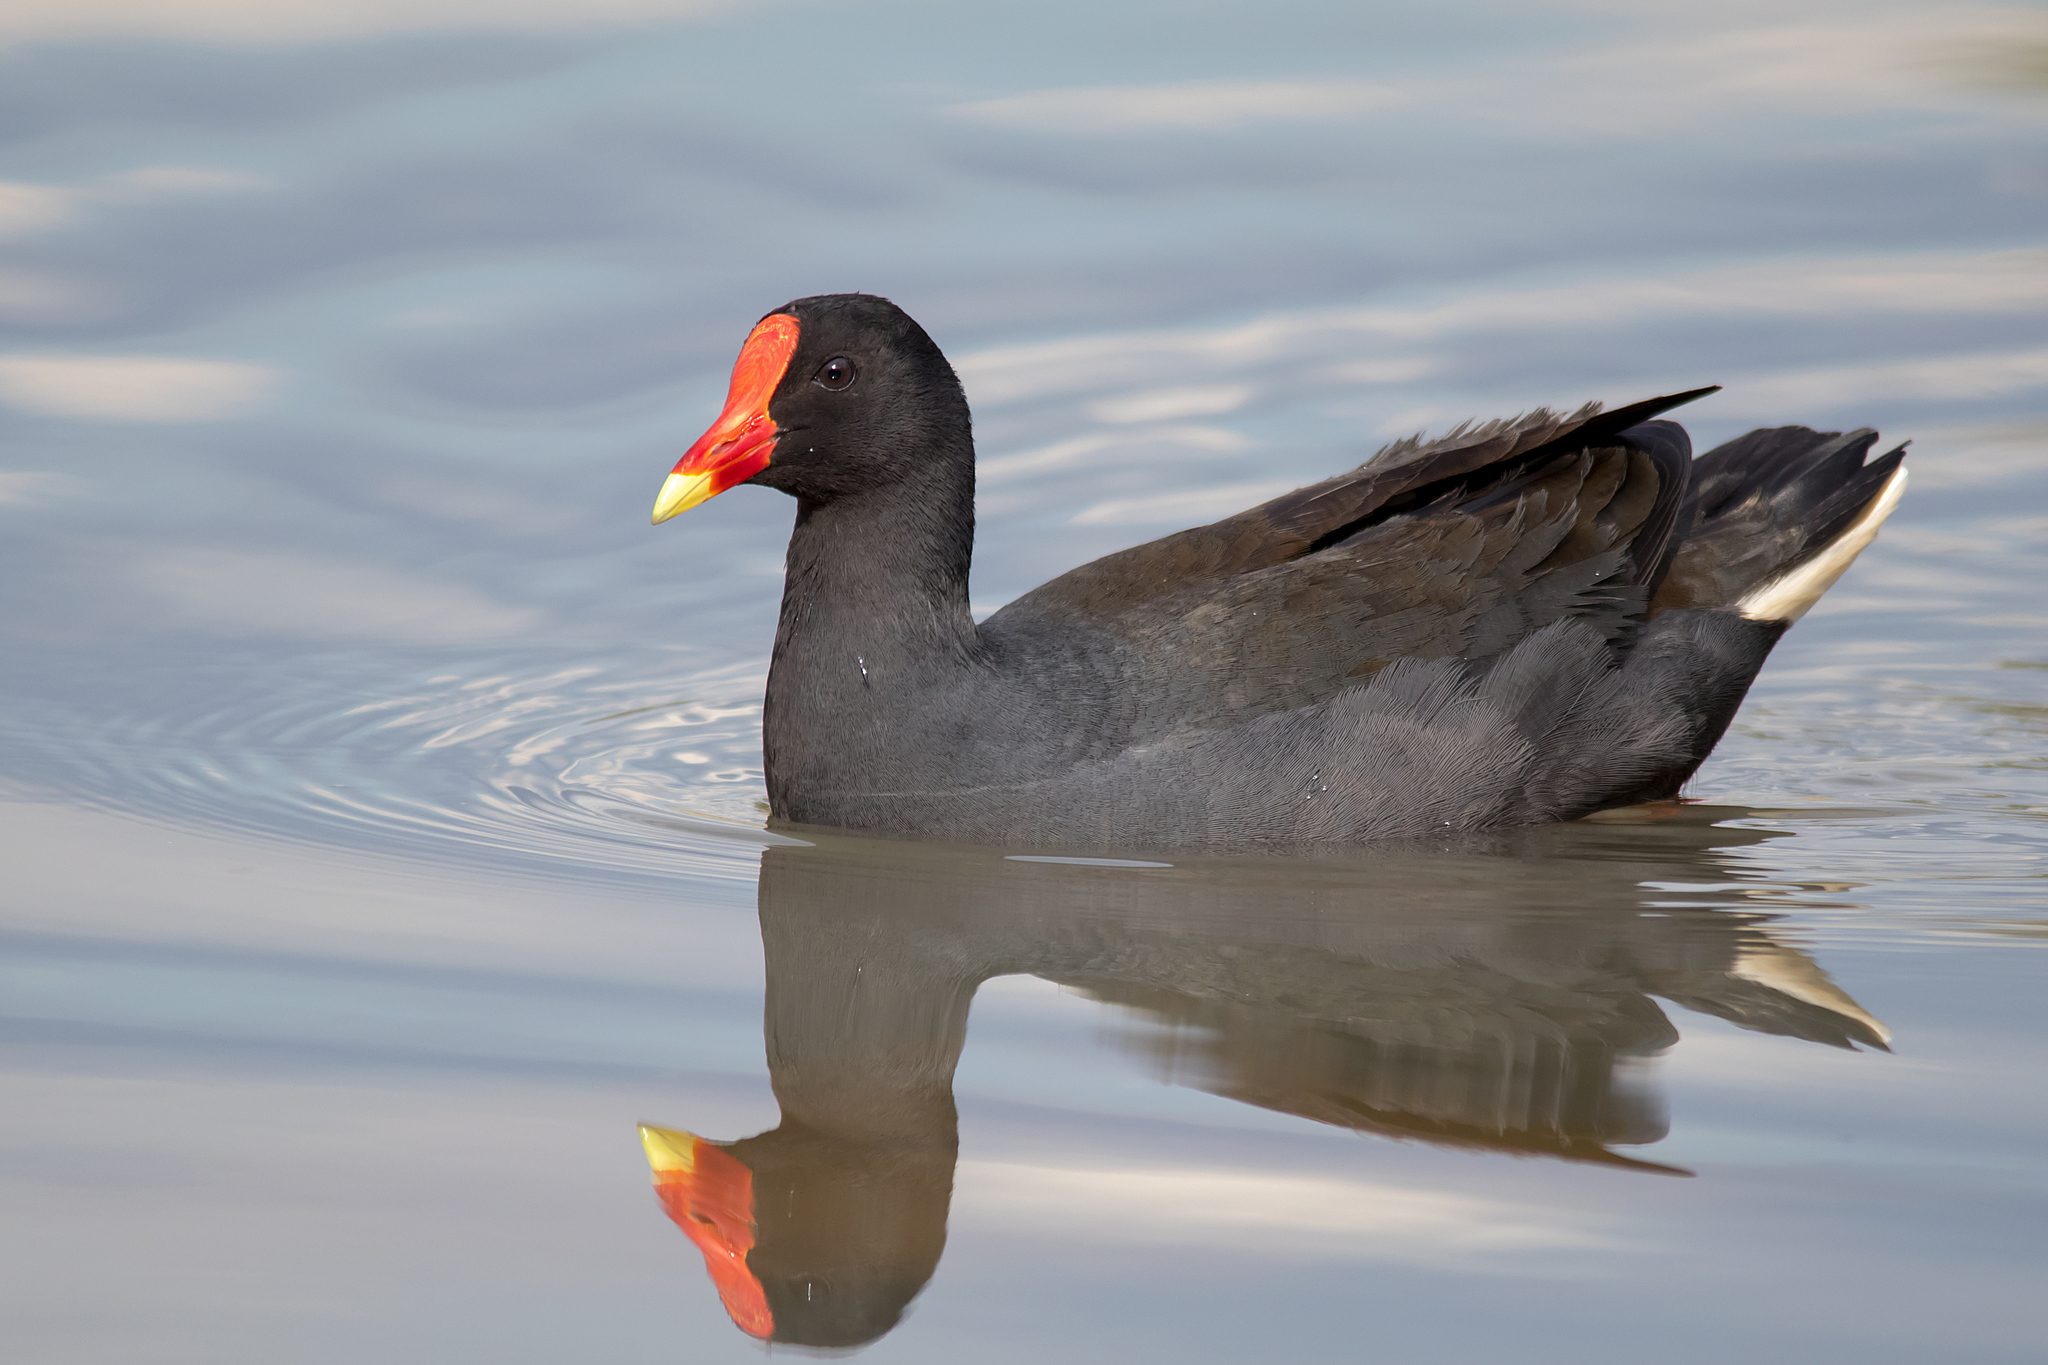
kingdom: Animalia
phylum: Chordata
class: Aves
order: Gruiformes
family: Rallidae
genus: Gallinula
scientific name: Gallinula tenebrosa
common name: Dusky moorhen
